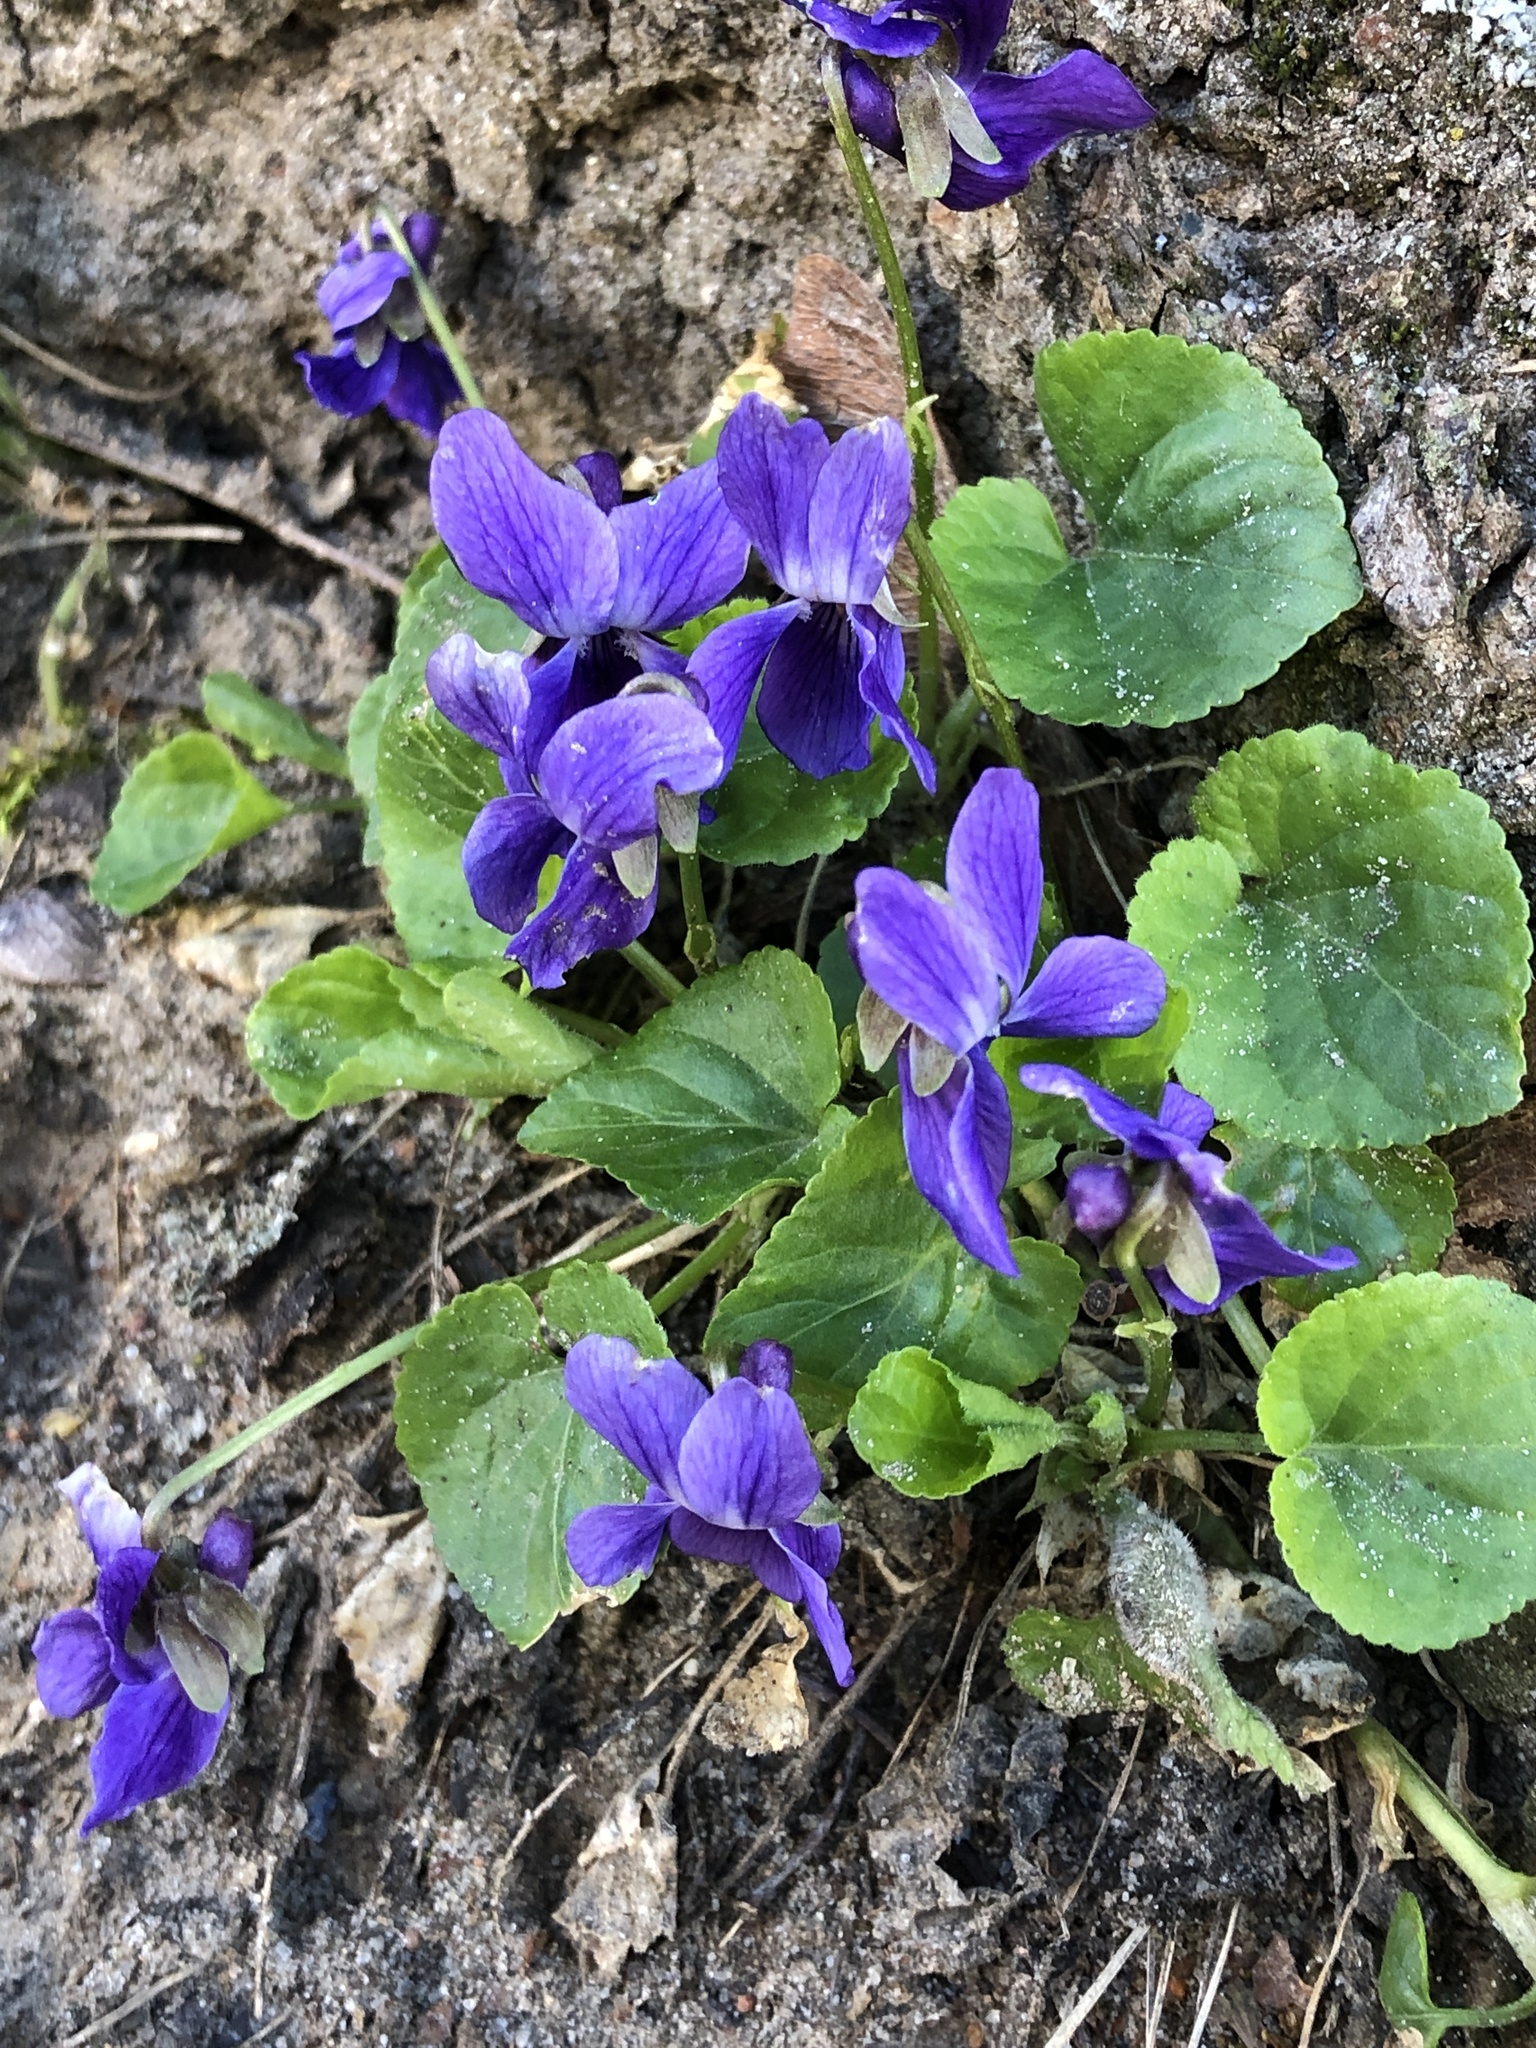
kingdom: Plantae
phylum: Tracheophyta
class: Magnoliopsida
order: Malpighiales
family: Violaceae
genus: Viola
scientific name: Viola odorata
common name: Sweet violet
